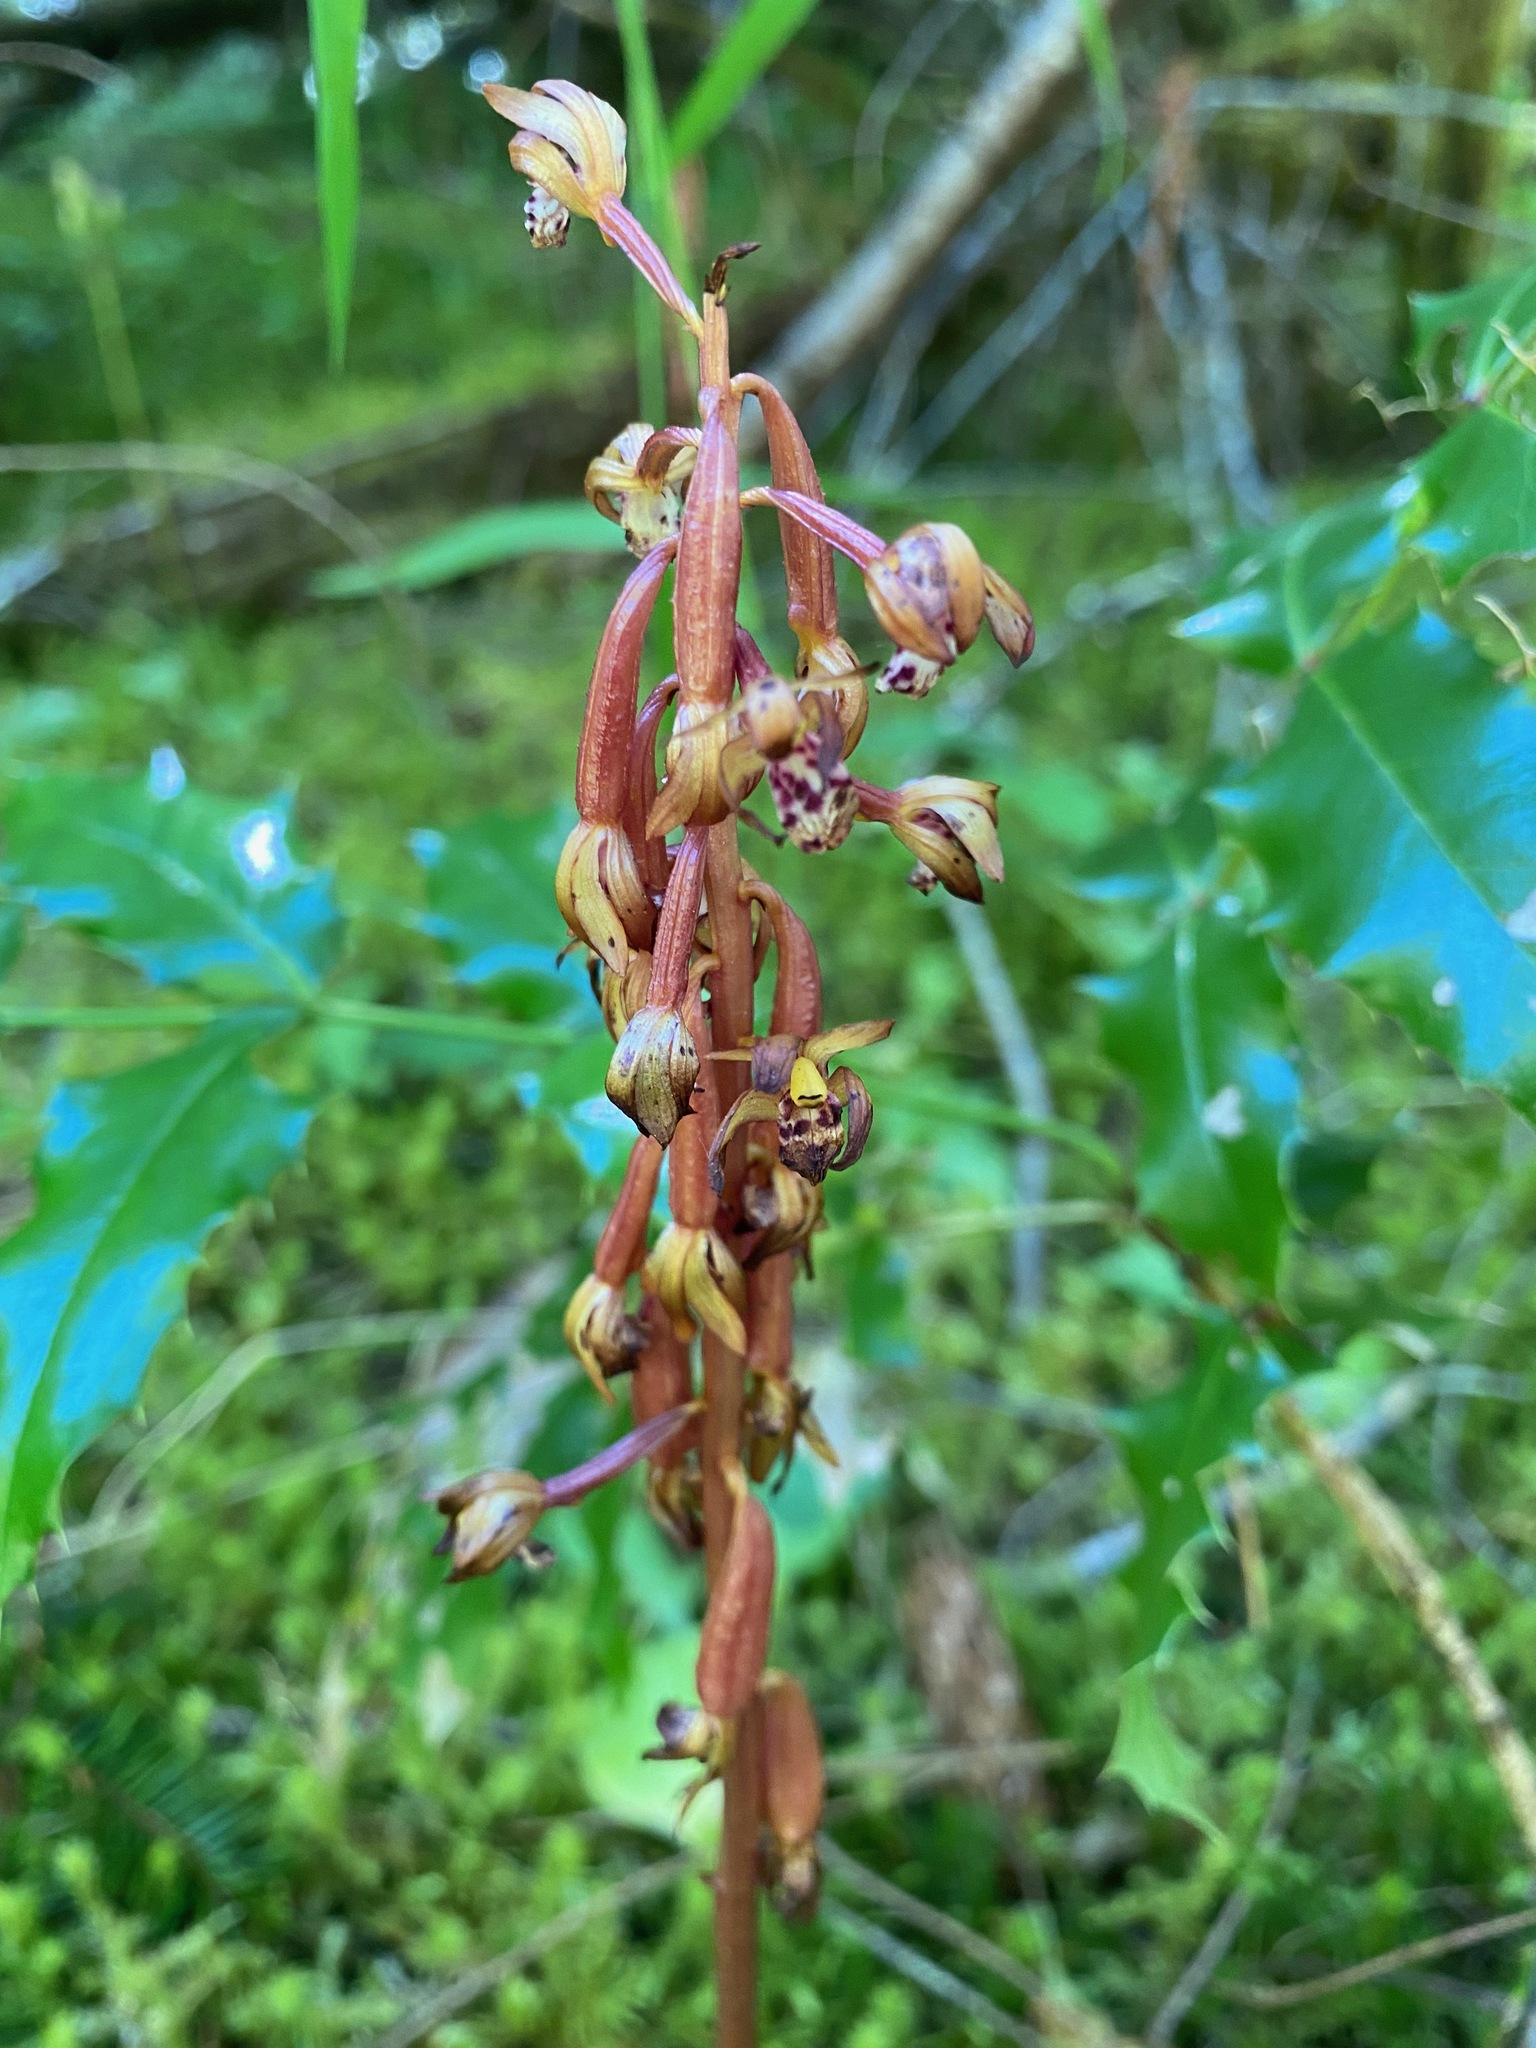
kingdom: Plantae
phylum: Tracheophyta
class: Liliopsida
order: Asparagales
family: Orchidaceae
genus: Corallorhiza
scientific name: Corallorhiza maculata
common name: Spotted coralroot
